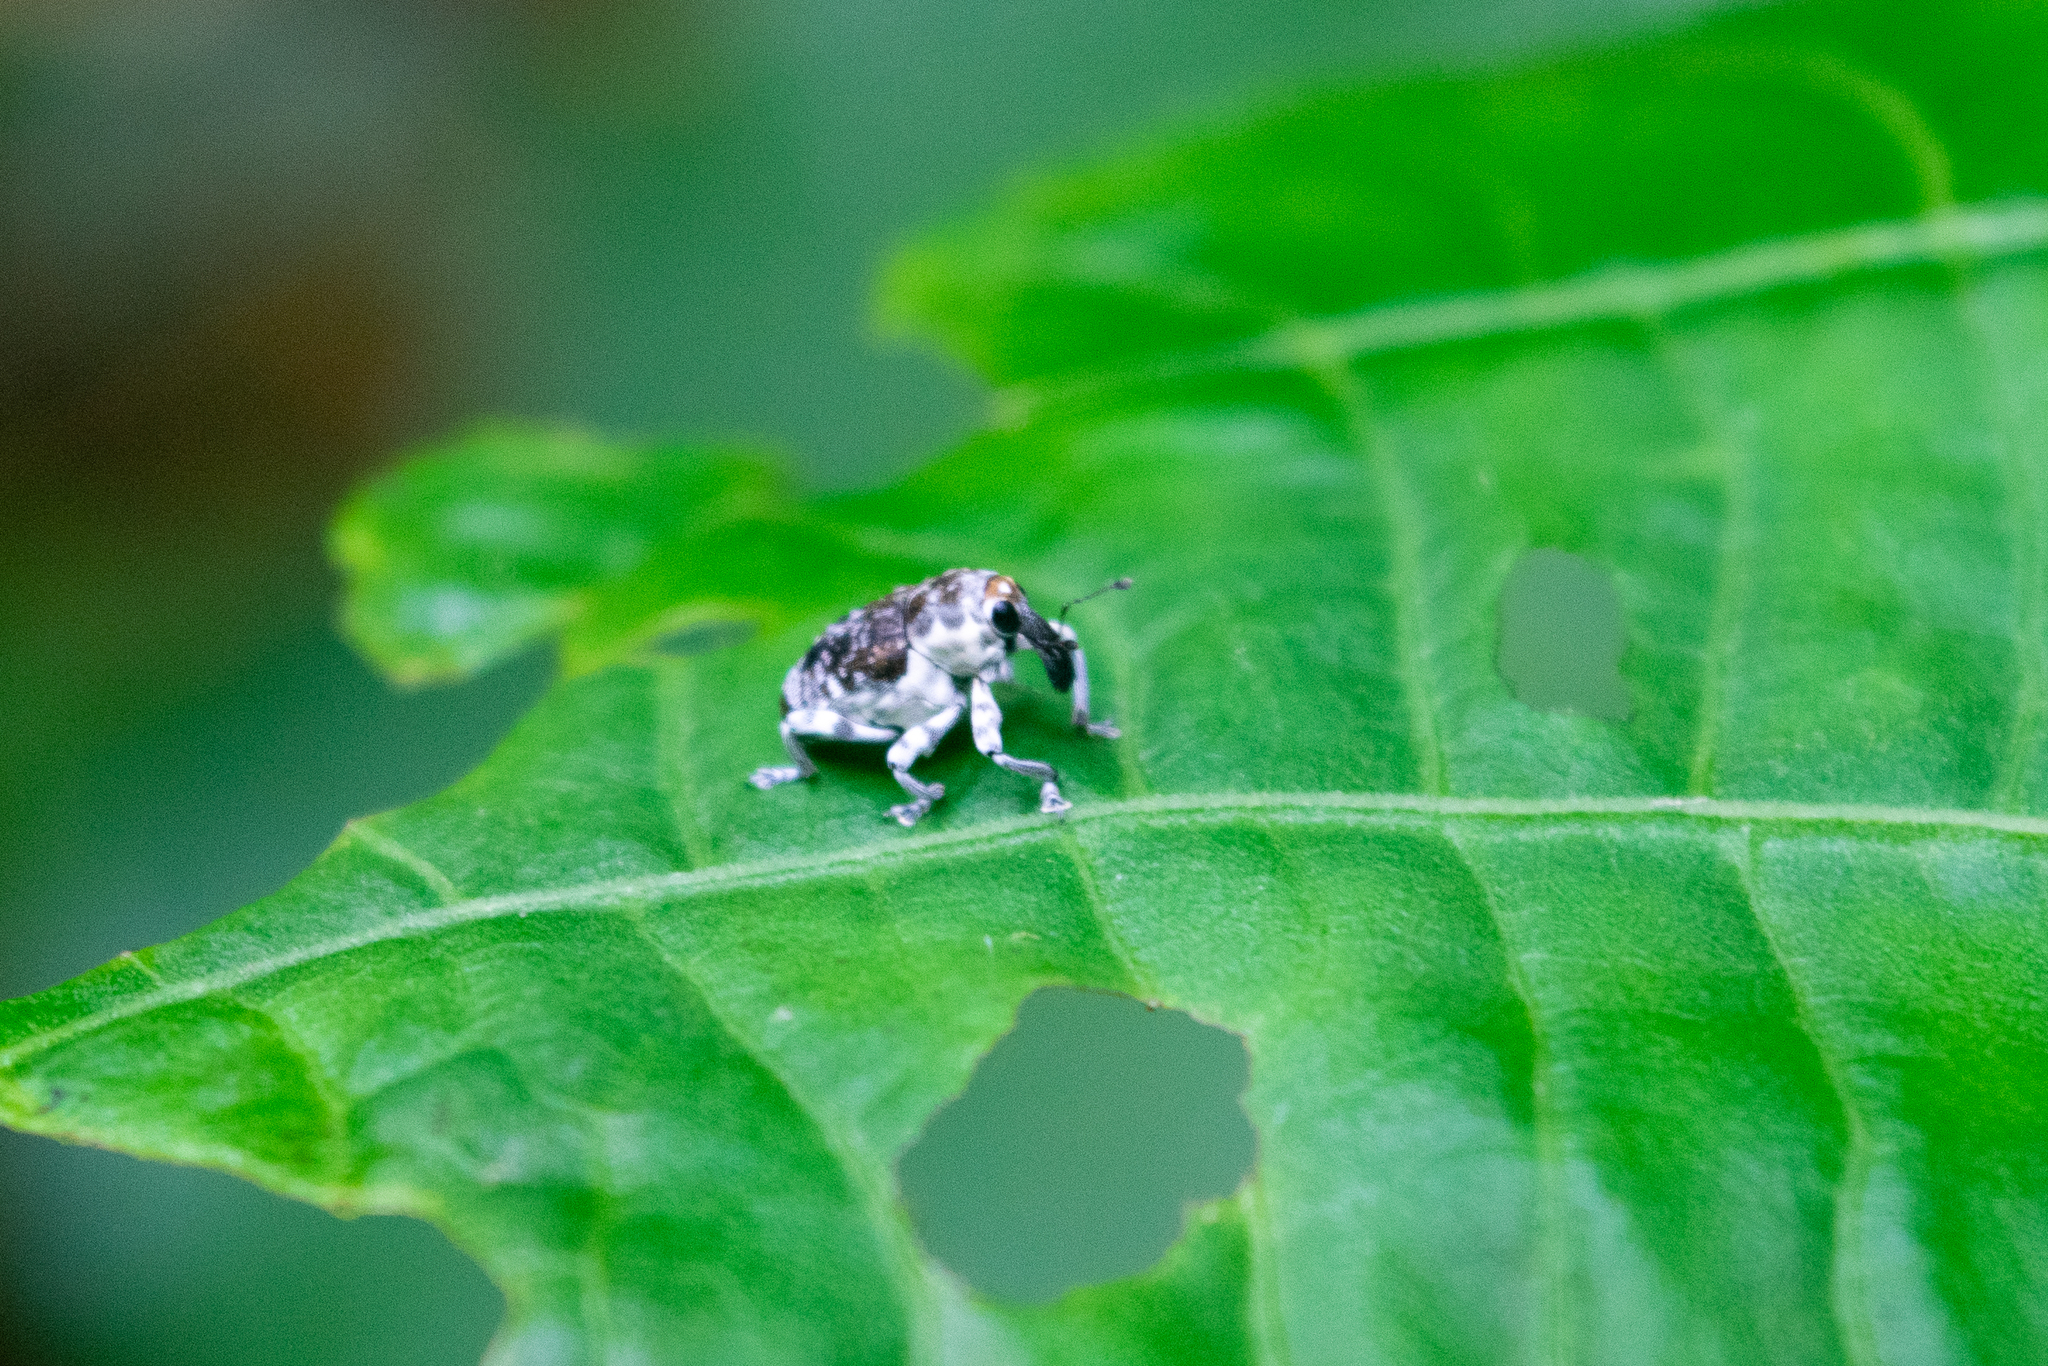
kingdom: Animalia
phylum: Arthropoda
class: Insecta
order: Coleoptera
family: Curculionidae
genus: Peridinetus
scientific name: Peridinetus ecuadoricus
